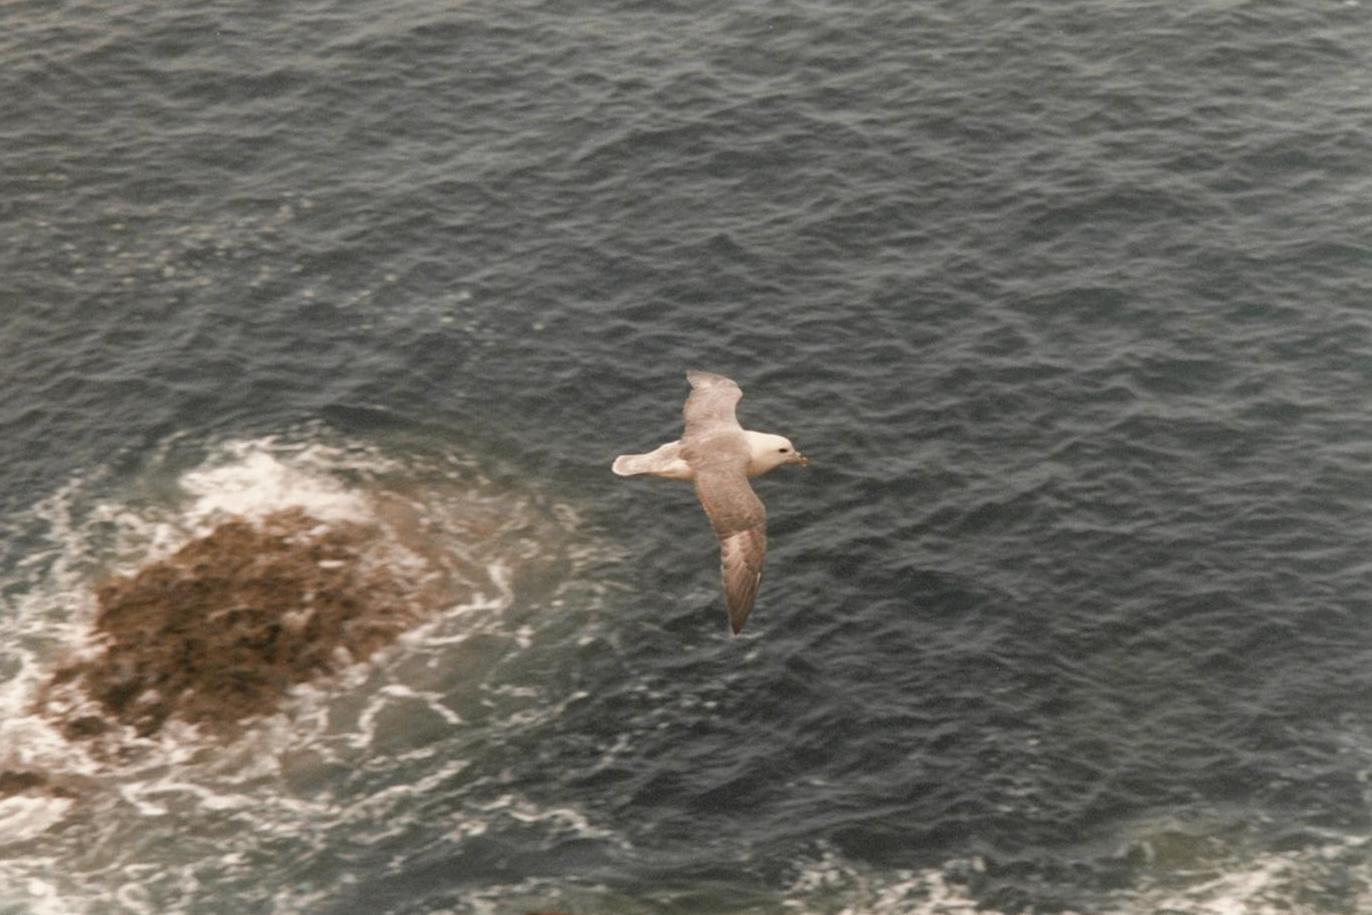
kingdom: Animalia
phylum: Chordata
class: Aves
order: Procellariiformes
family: Procellariidae
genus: Fulmarus
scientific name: Fulmarus glacialis
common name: Northern fulmar
